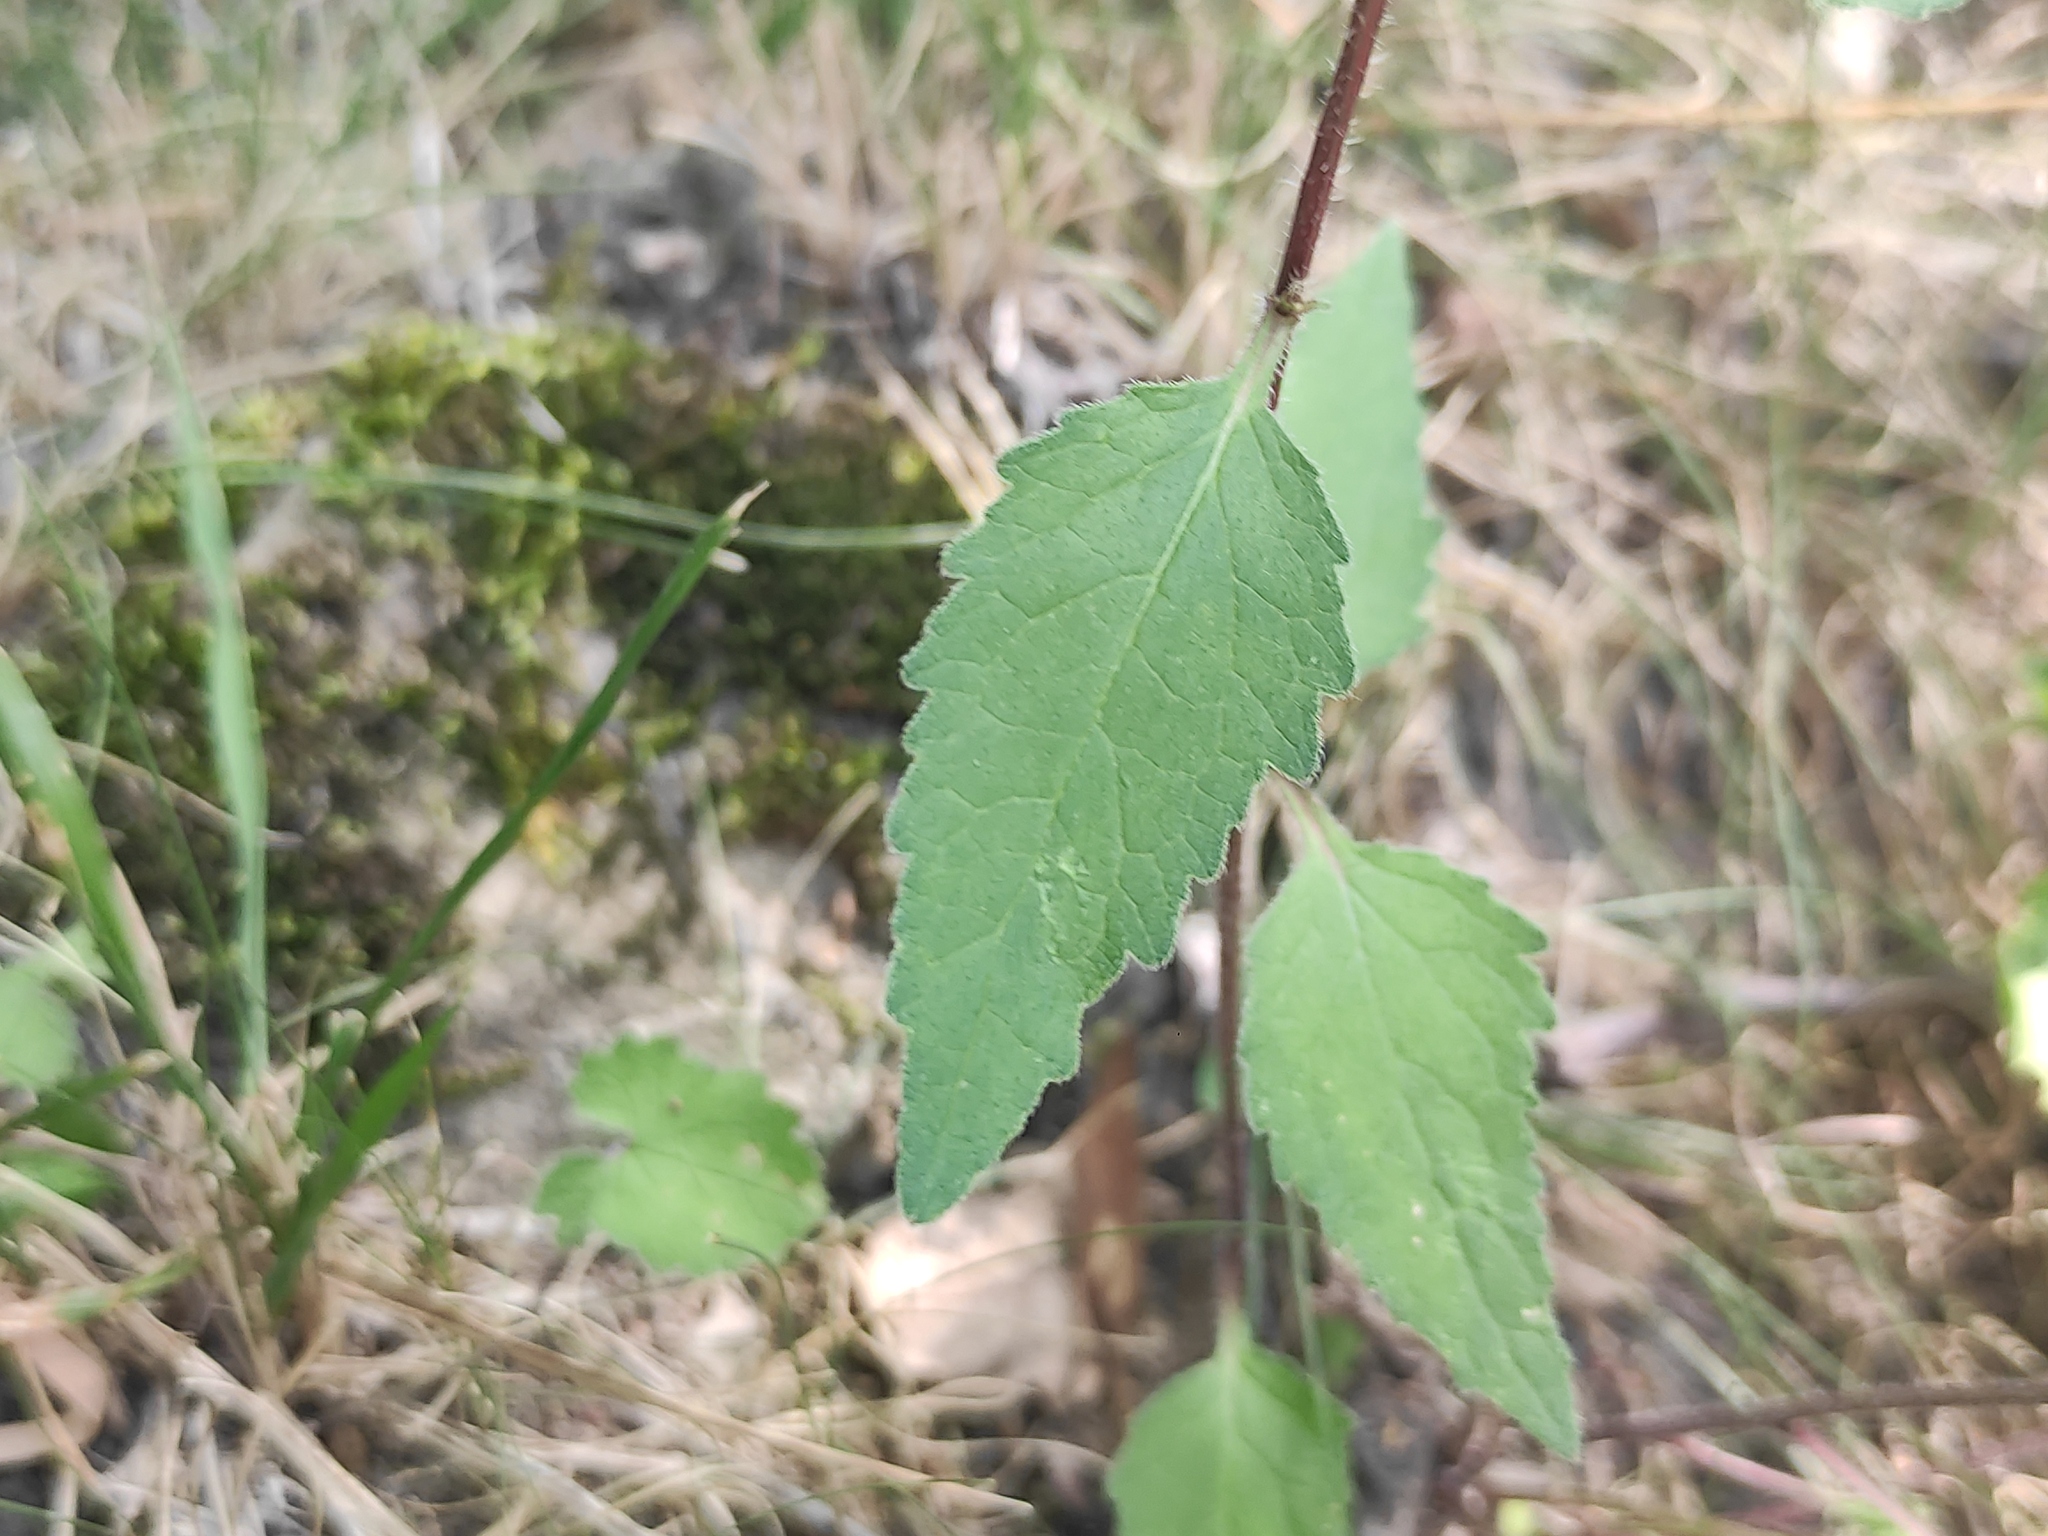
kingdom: Plantae
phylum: Tracheophyta
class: Magnoliopsida
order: Asterales
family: Campanulaceae
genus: Campanula
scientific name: Campanula trachelium
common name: Nettle-leaved bellflower
